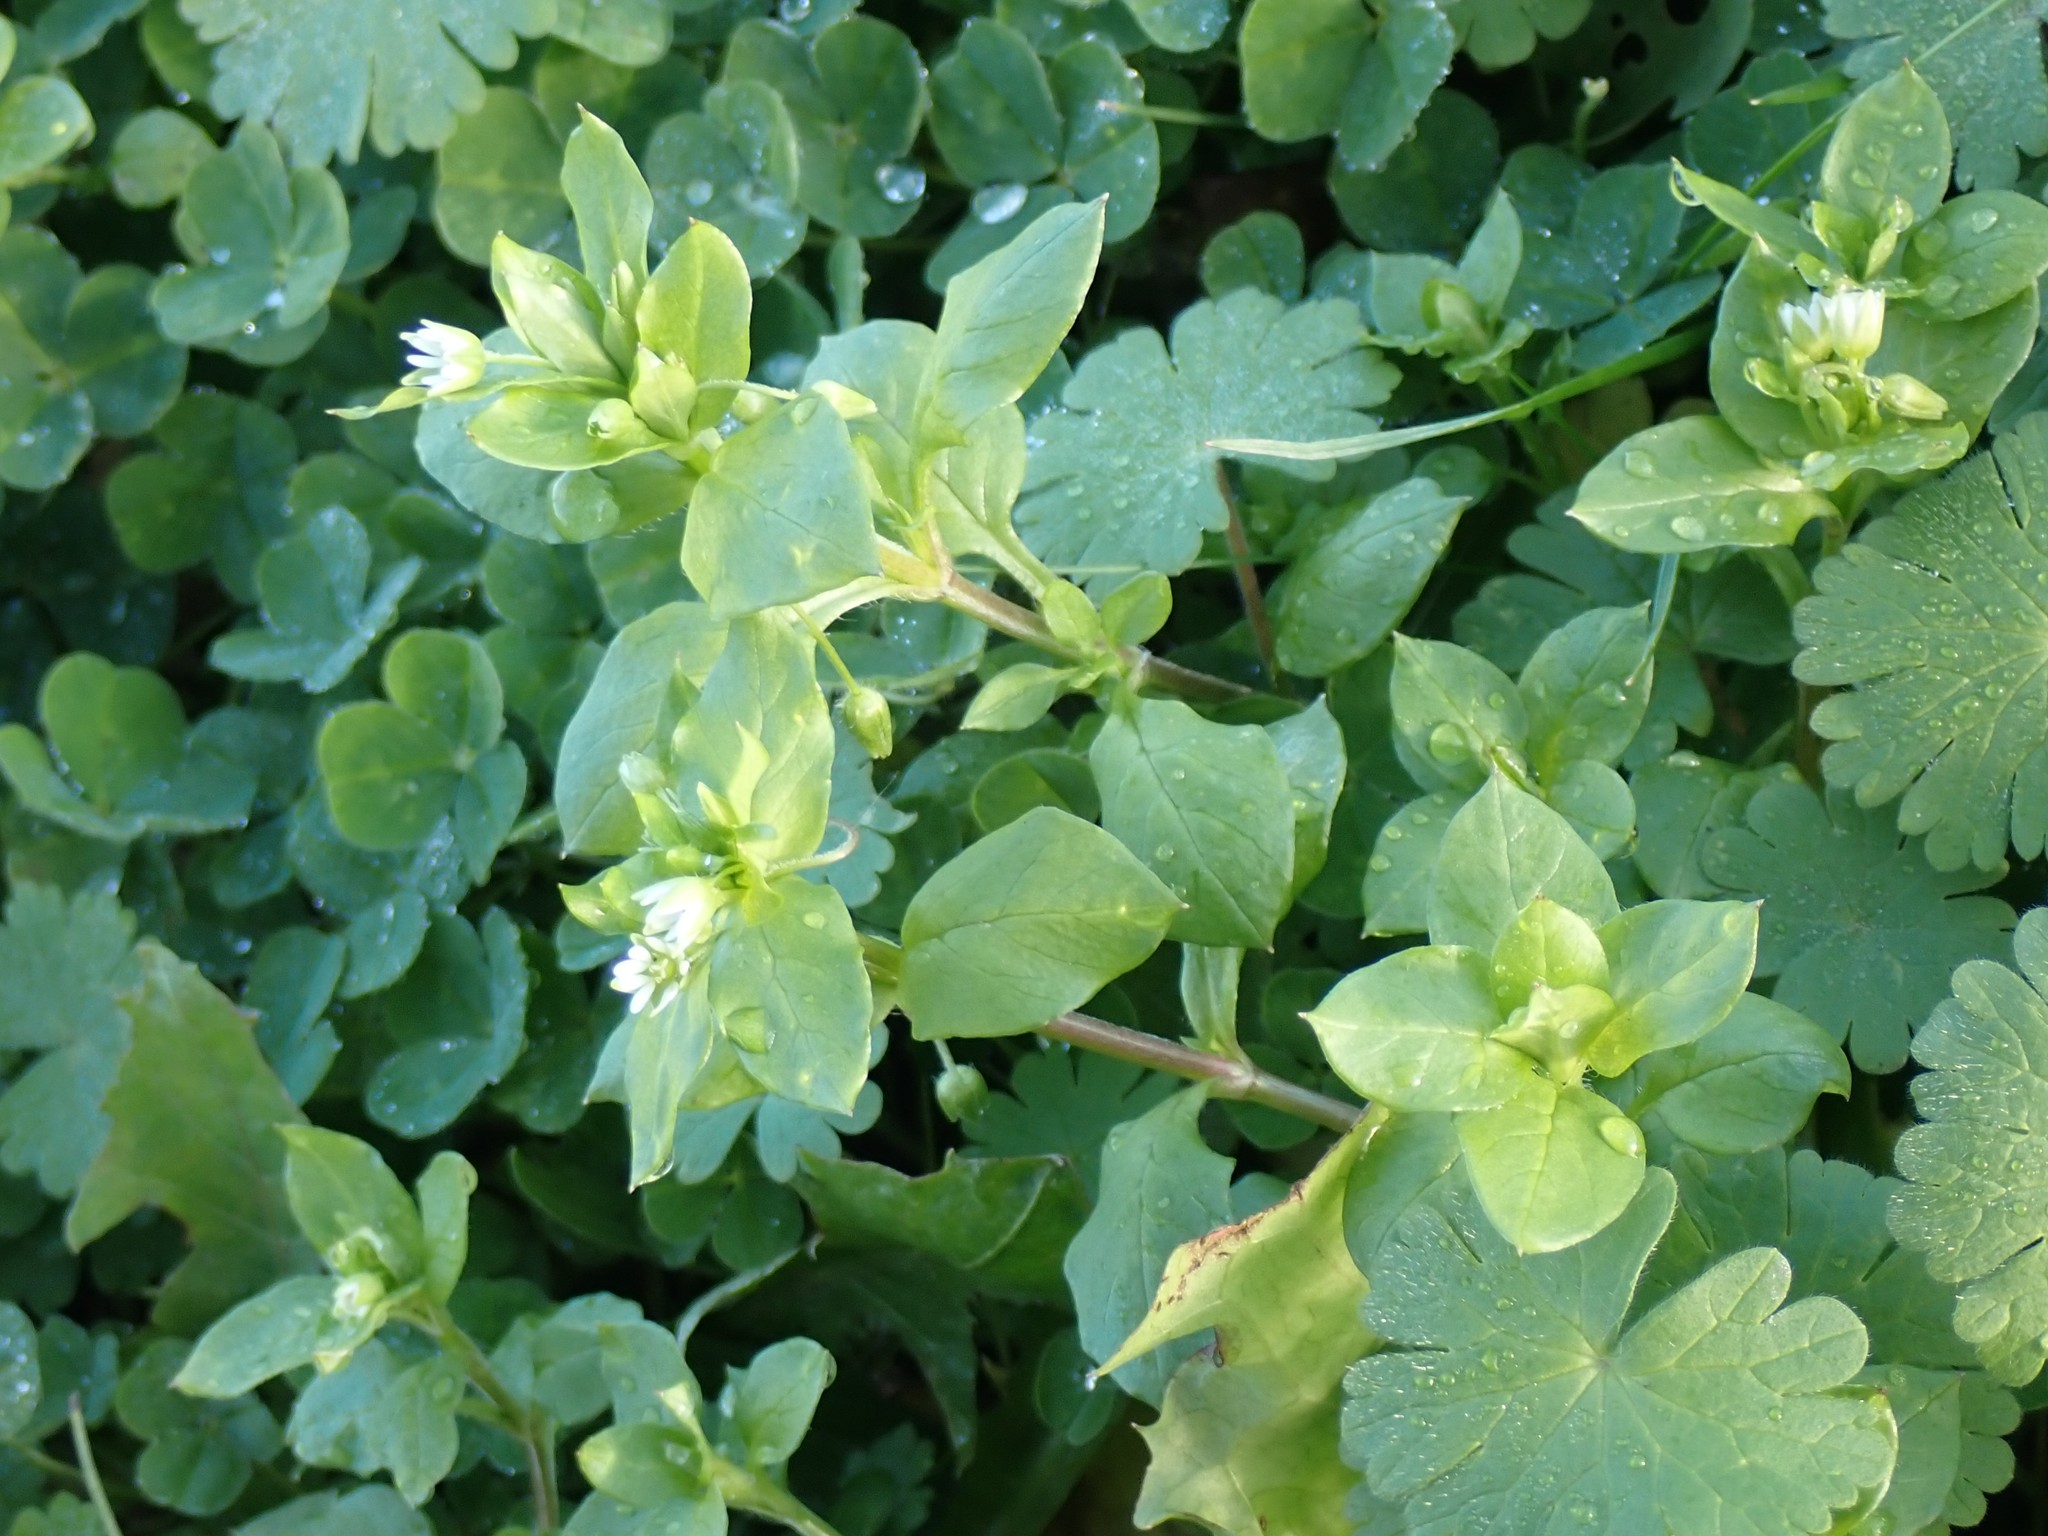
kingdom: Plantae
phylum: Tracheophyta
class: Magnoliopsida
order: Caryophyllales
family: Caryophyllaceae
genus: Stellaria
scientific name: Stellaria media
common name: Common chickweed
